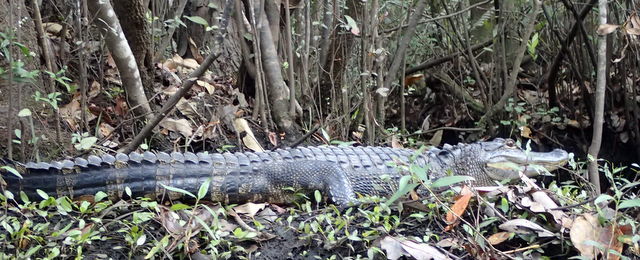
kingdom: Animalia
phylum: Chordata
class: Crocodylia
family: Alligatoridae
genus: Alligator
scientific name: Alligator mississippiensis
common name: American alligator
